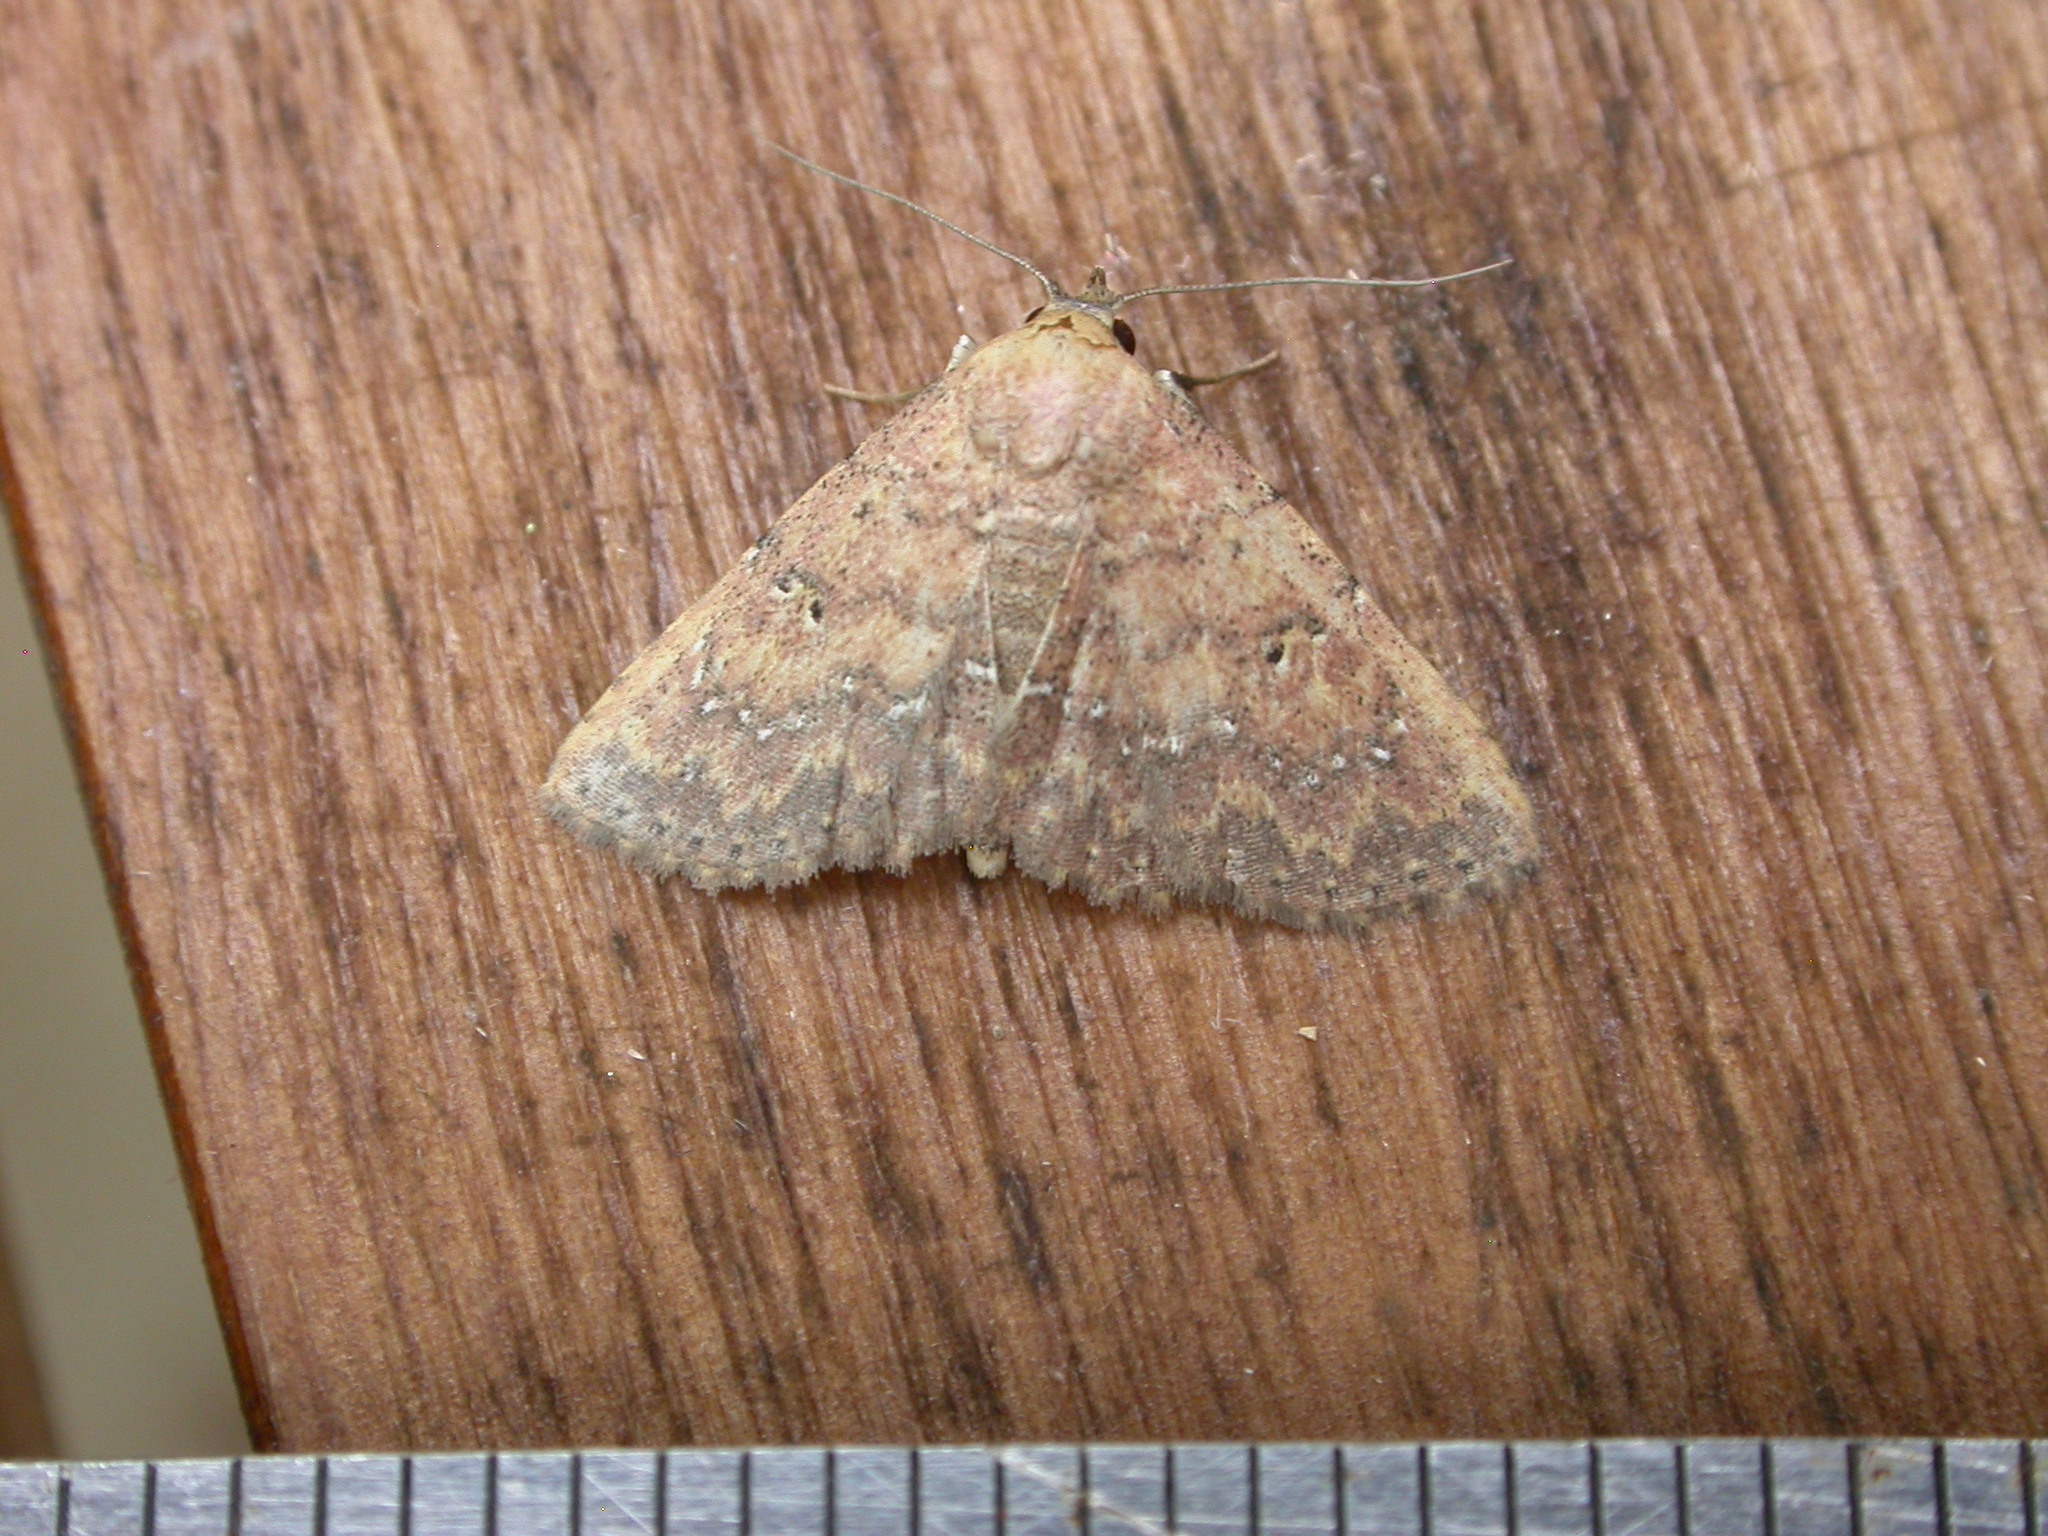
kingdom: Animalia
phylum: Arthropoda
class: Insecta
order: Lepidoptera
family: Noctuidae
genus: Cerynea
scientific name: Cerynea trogobasis
